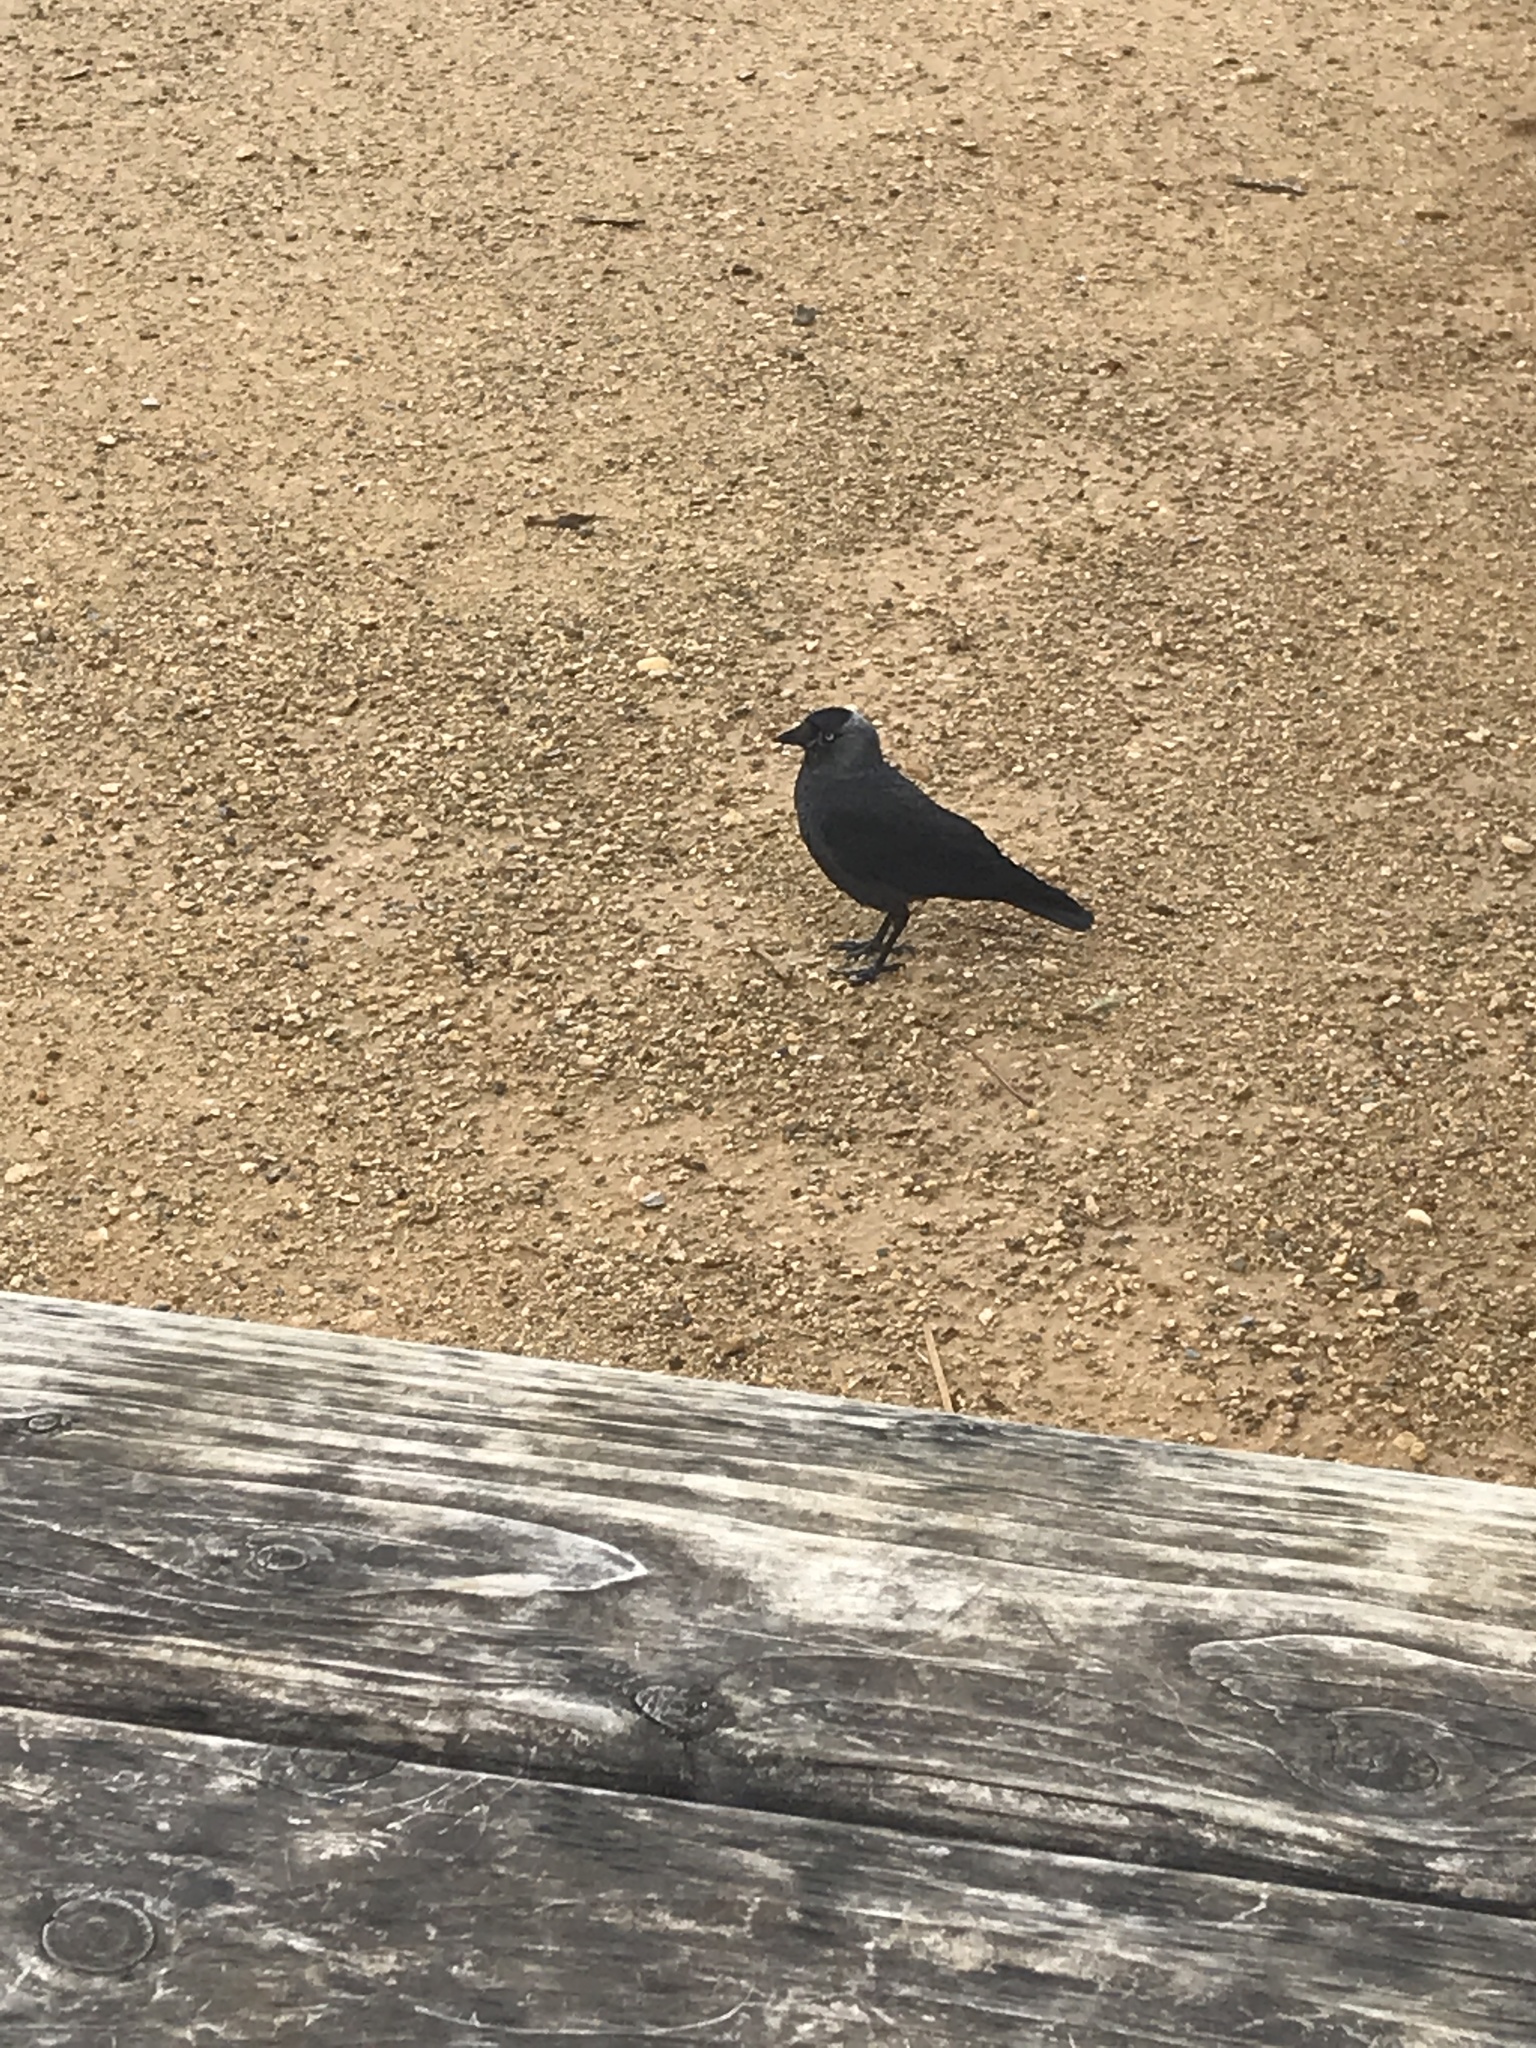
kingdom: Animalia
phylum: Chordata
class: Aves
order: Passeriformes
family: Corvidae
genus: Coloeus
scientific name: Coloeus monedula
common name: Western jackdaw
